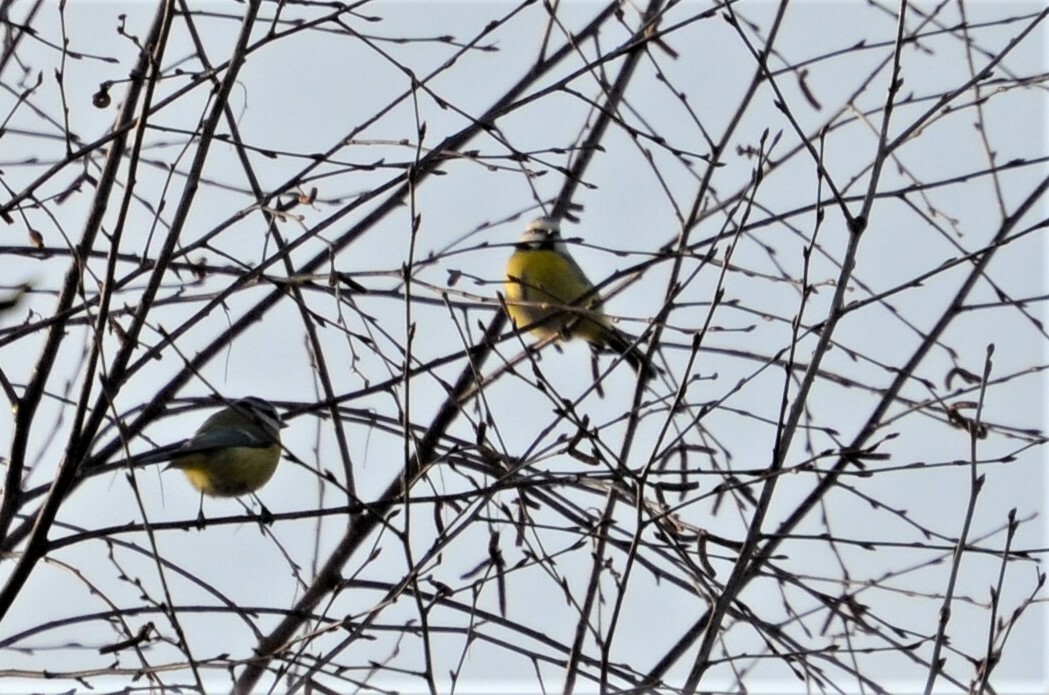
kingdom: Animalia
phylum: Chordata
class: Aves
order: Passeriformes
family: Paridae
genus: Cyanistes
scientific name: Cyanistes caeruleus
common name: Eurasian blue tit
